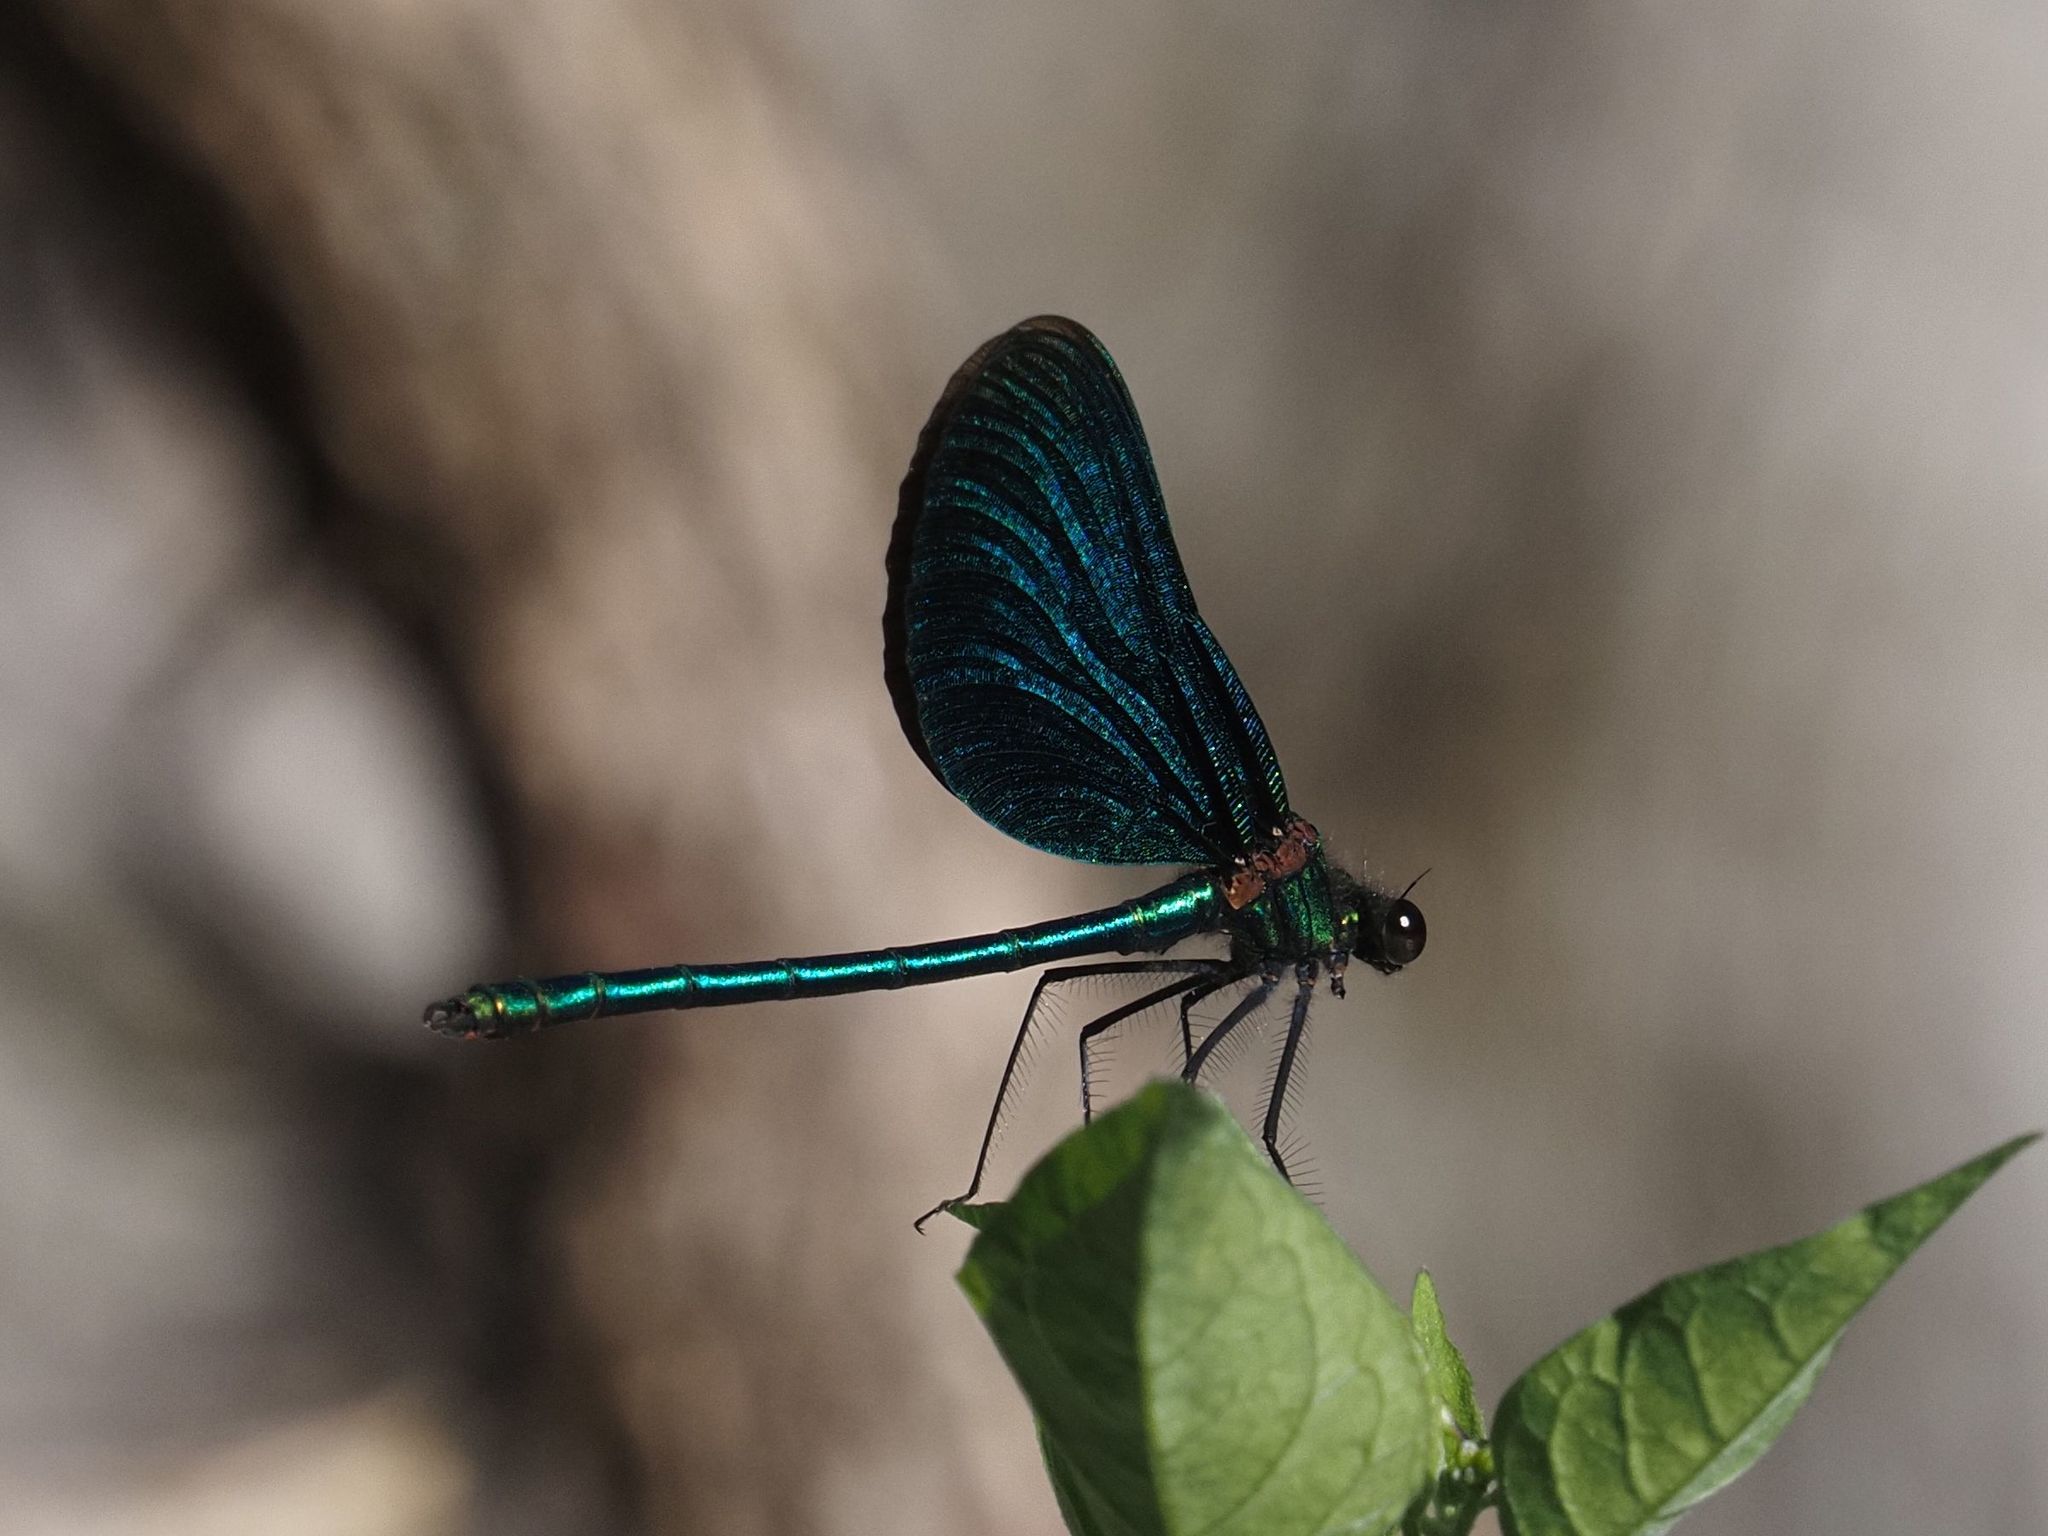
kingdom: Animalia
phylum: Arthropoda
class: Insecta
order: Odonata
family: Calopterygidae
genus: Calopteryx
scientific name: Calopteryx virgo
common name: Beautiful demoiselle
